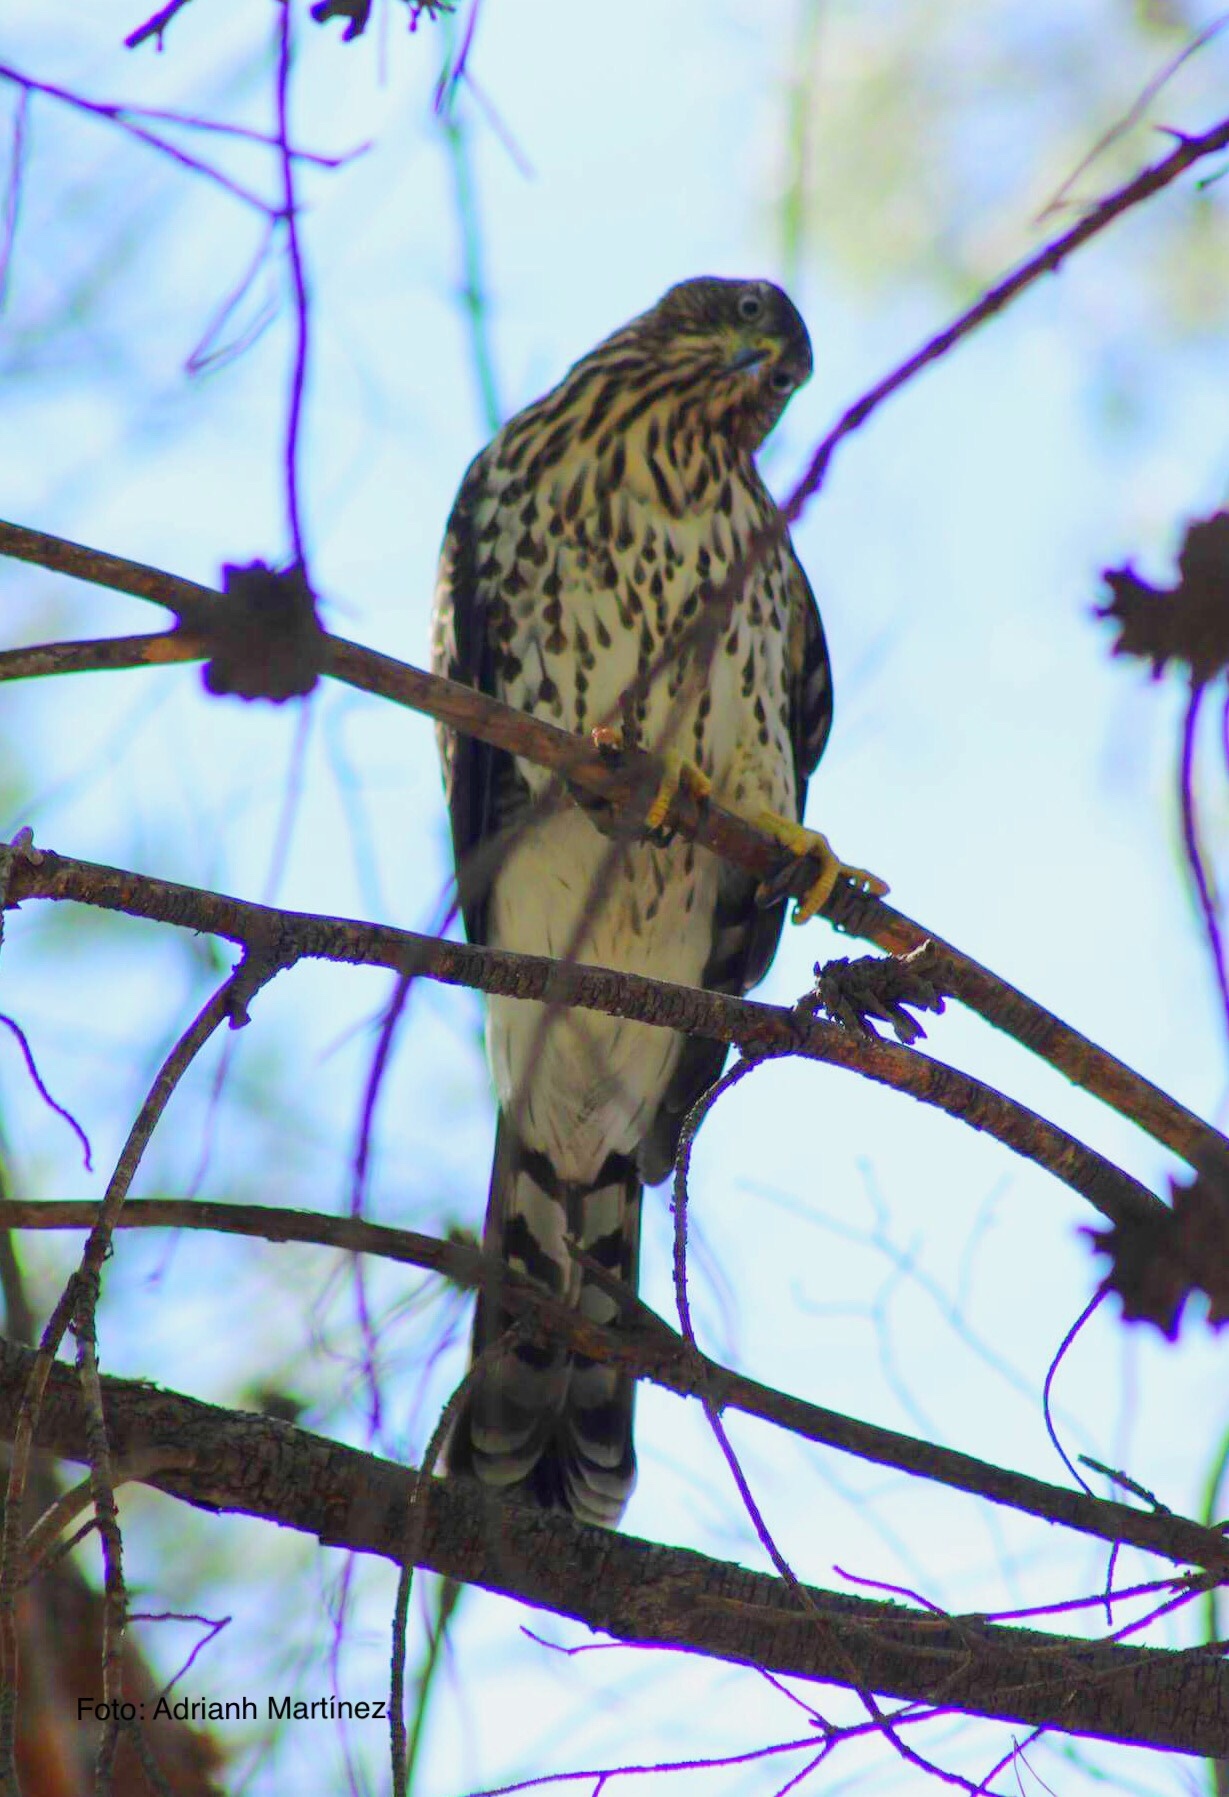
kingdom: Animalia
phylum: Chordata
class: Aves
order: Accipitriformes
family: Accipitridae
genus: Accipiter
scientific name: Accipiter cooperii
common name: Cooper's hawk
